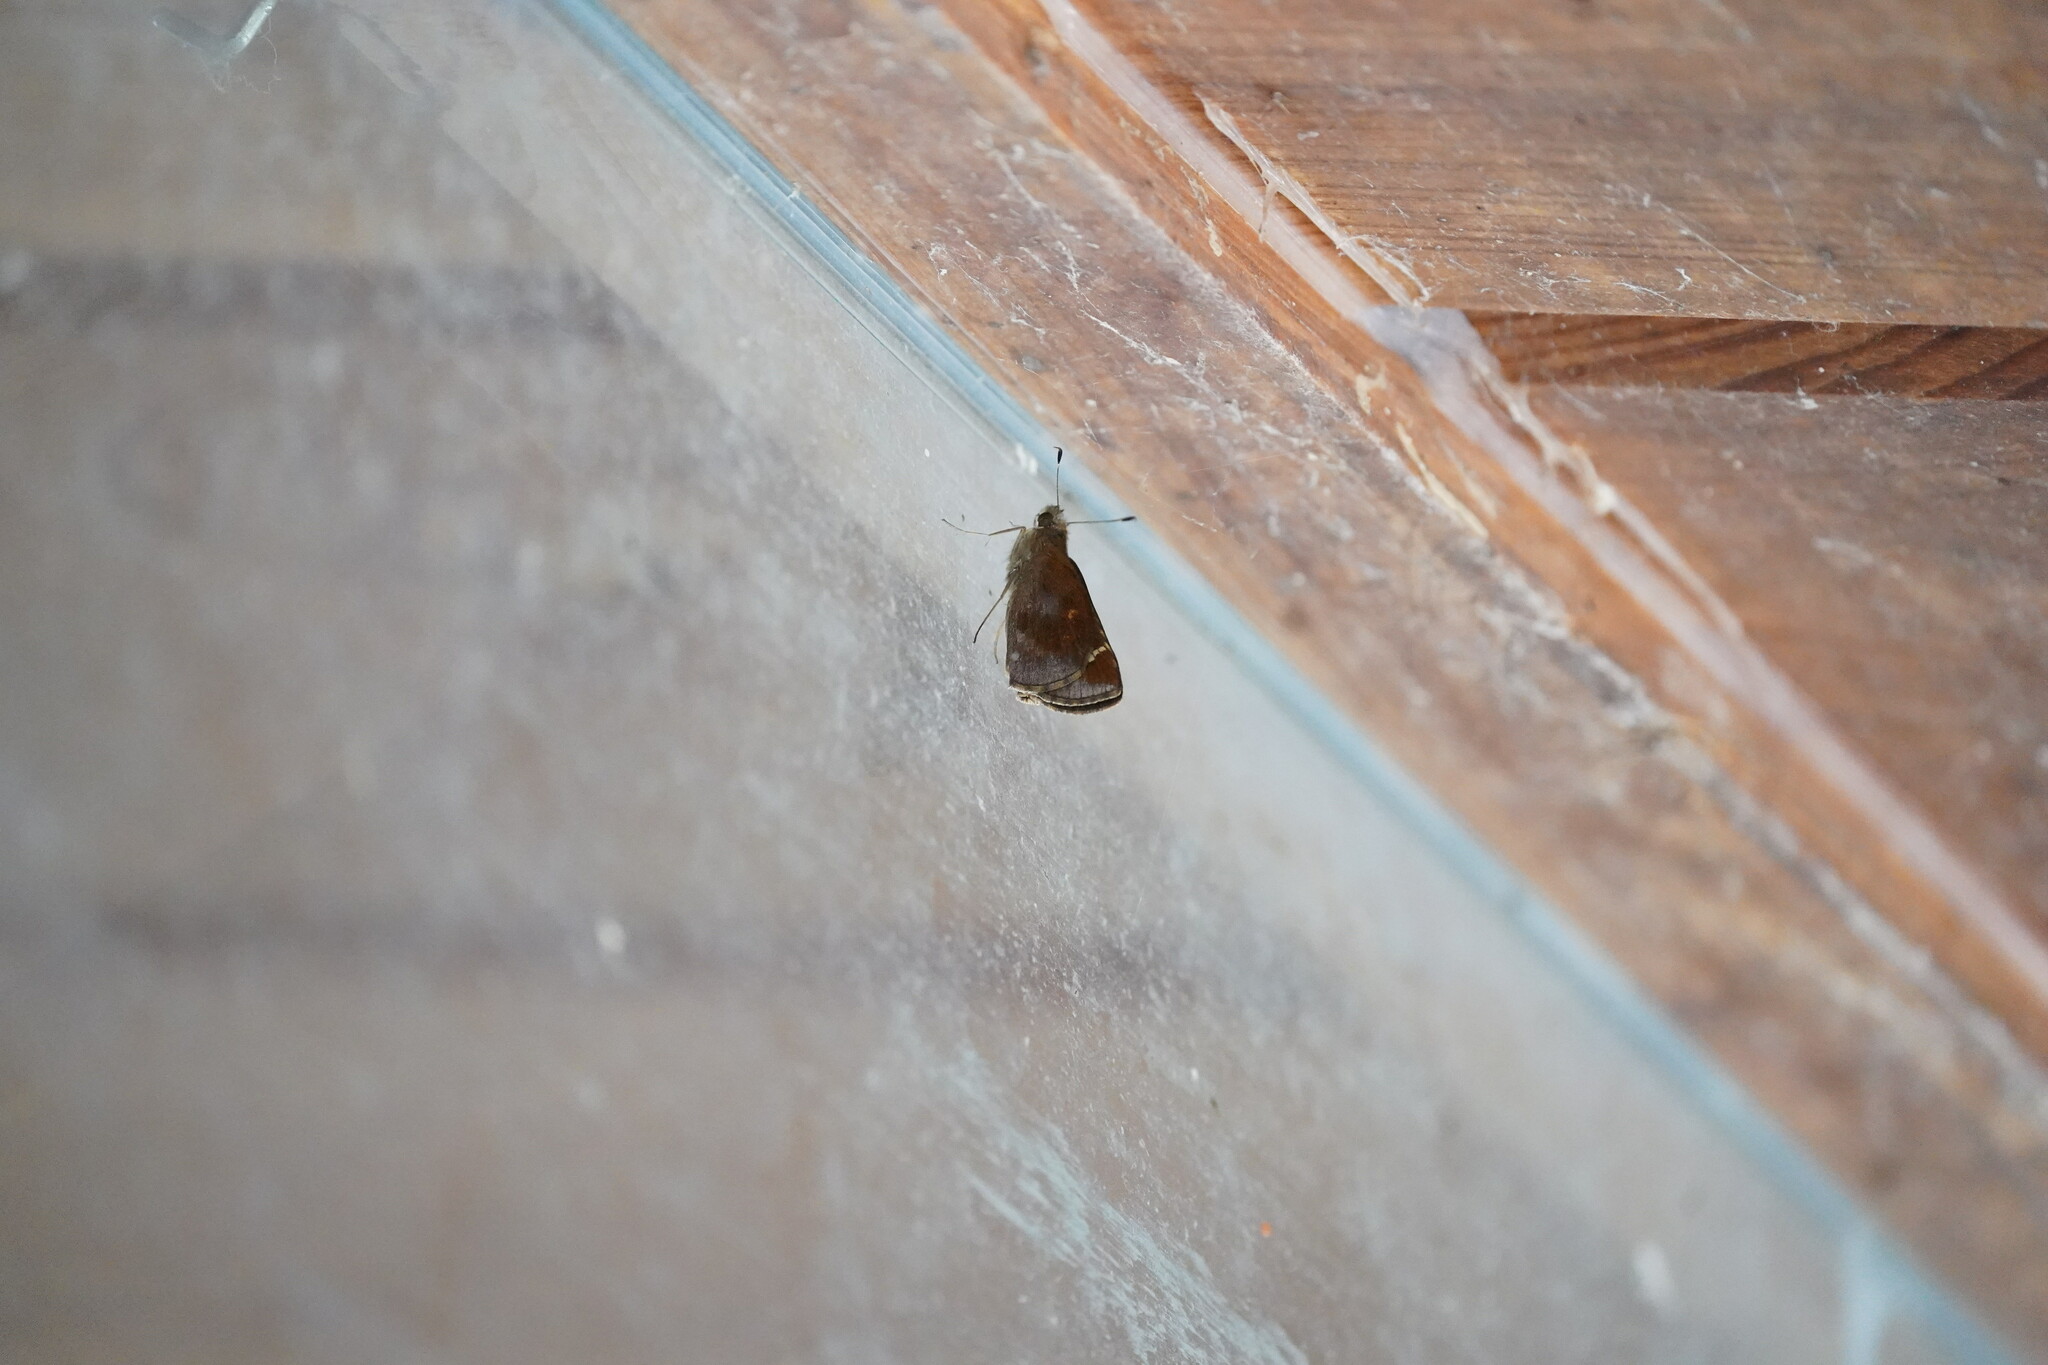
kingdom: Animalia
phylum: Arthropoda
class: Insecta
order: Lepidoptera
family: Hesperiidae
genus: Lerema
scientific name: Lerema accius
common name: Clouded skipper
